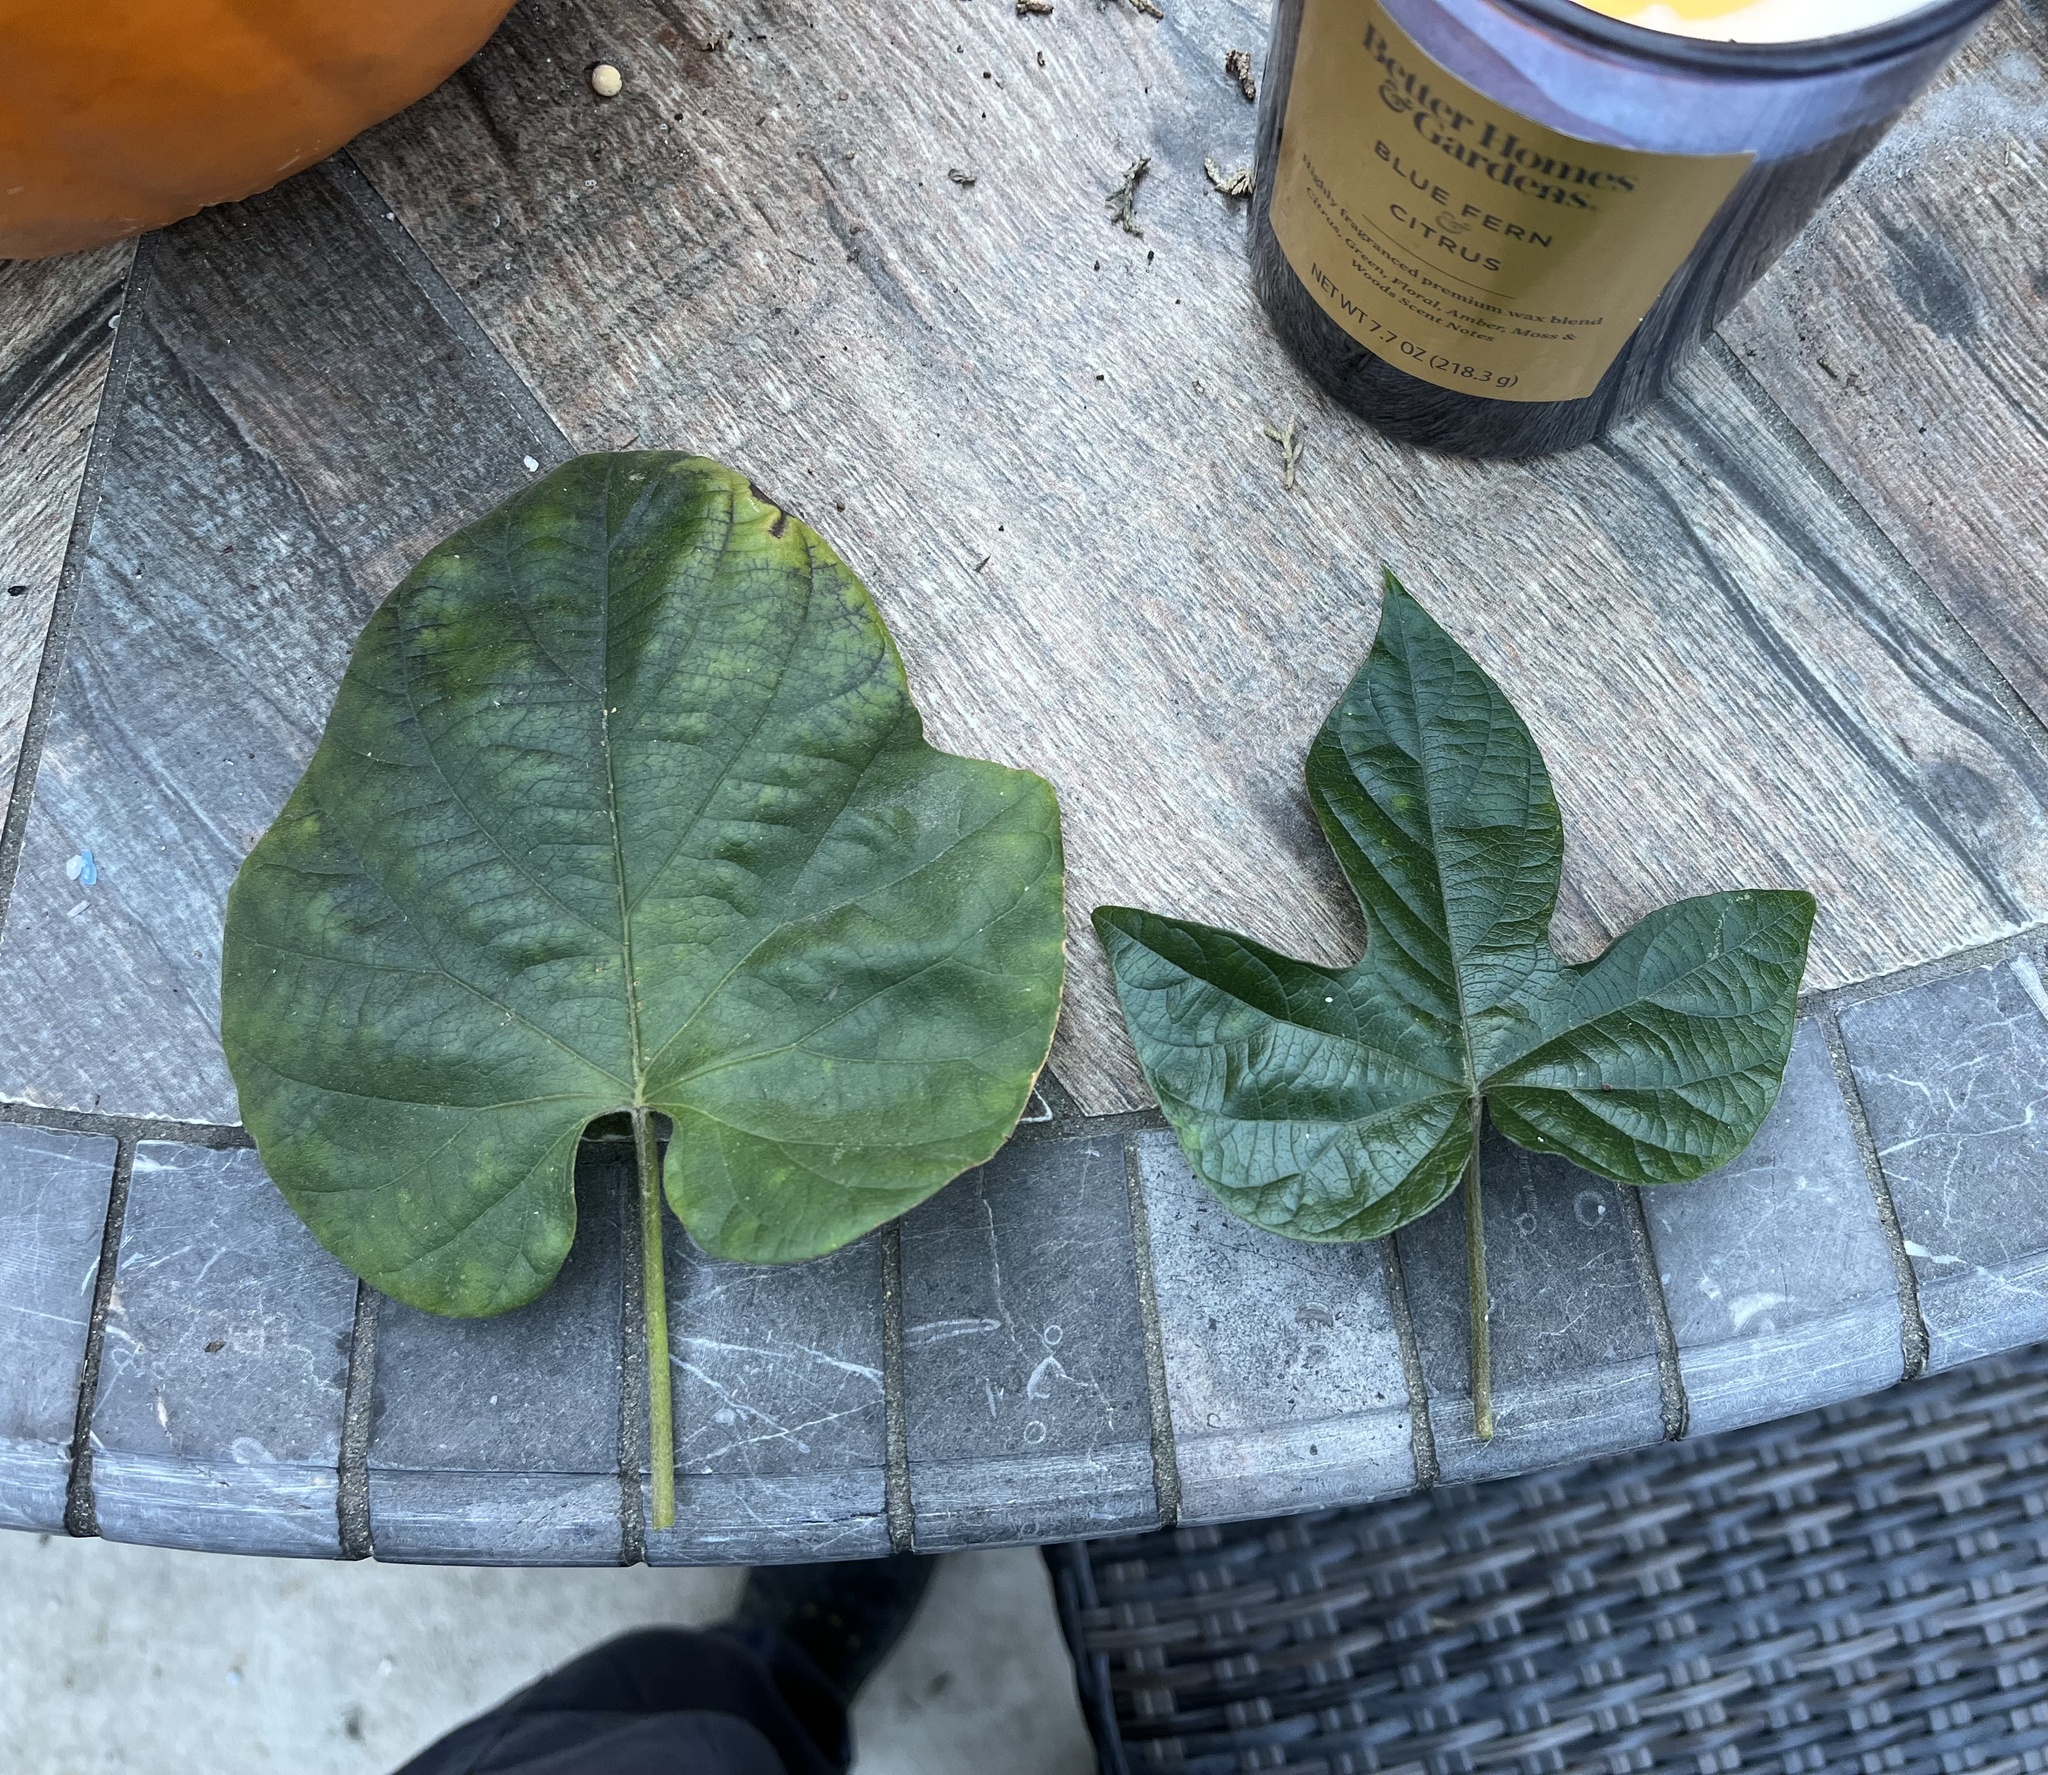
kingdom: Plantae
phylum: Tracheophyta
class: Magnoliopsida
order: Solanales
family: Convolvulaceae
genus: Ipomoea
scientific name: Ipomoea indica
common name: Blue dawnflower
